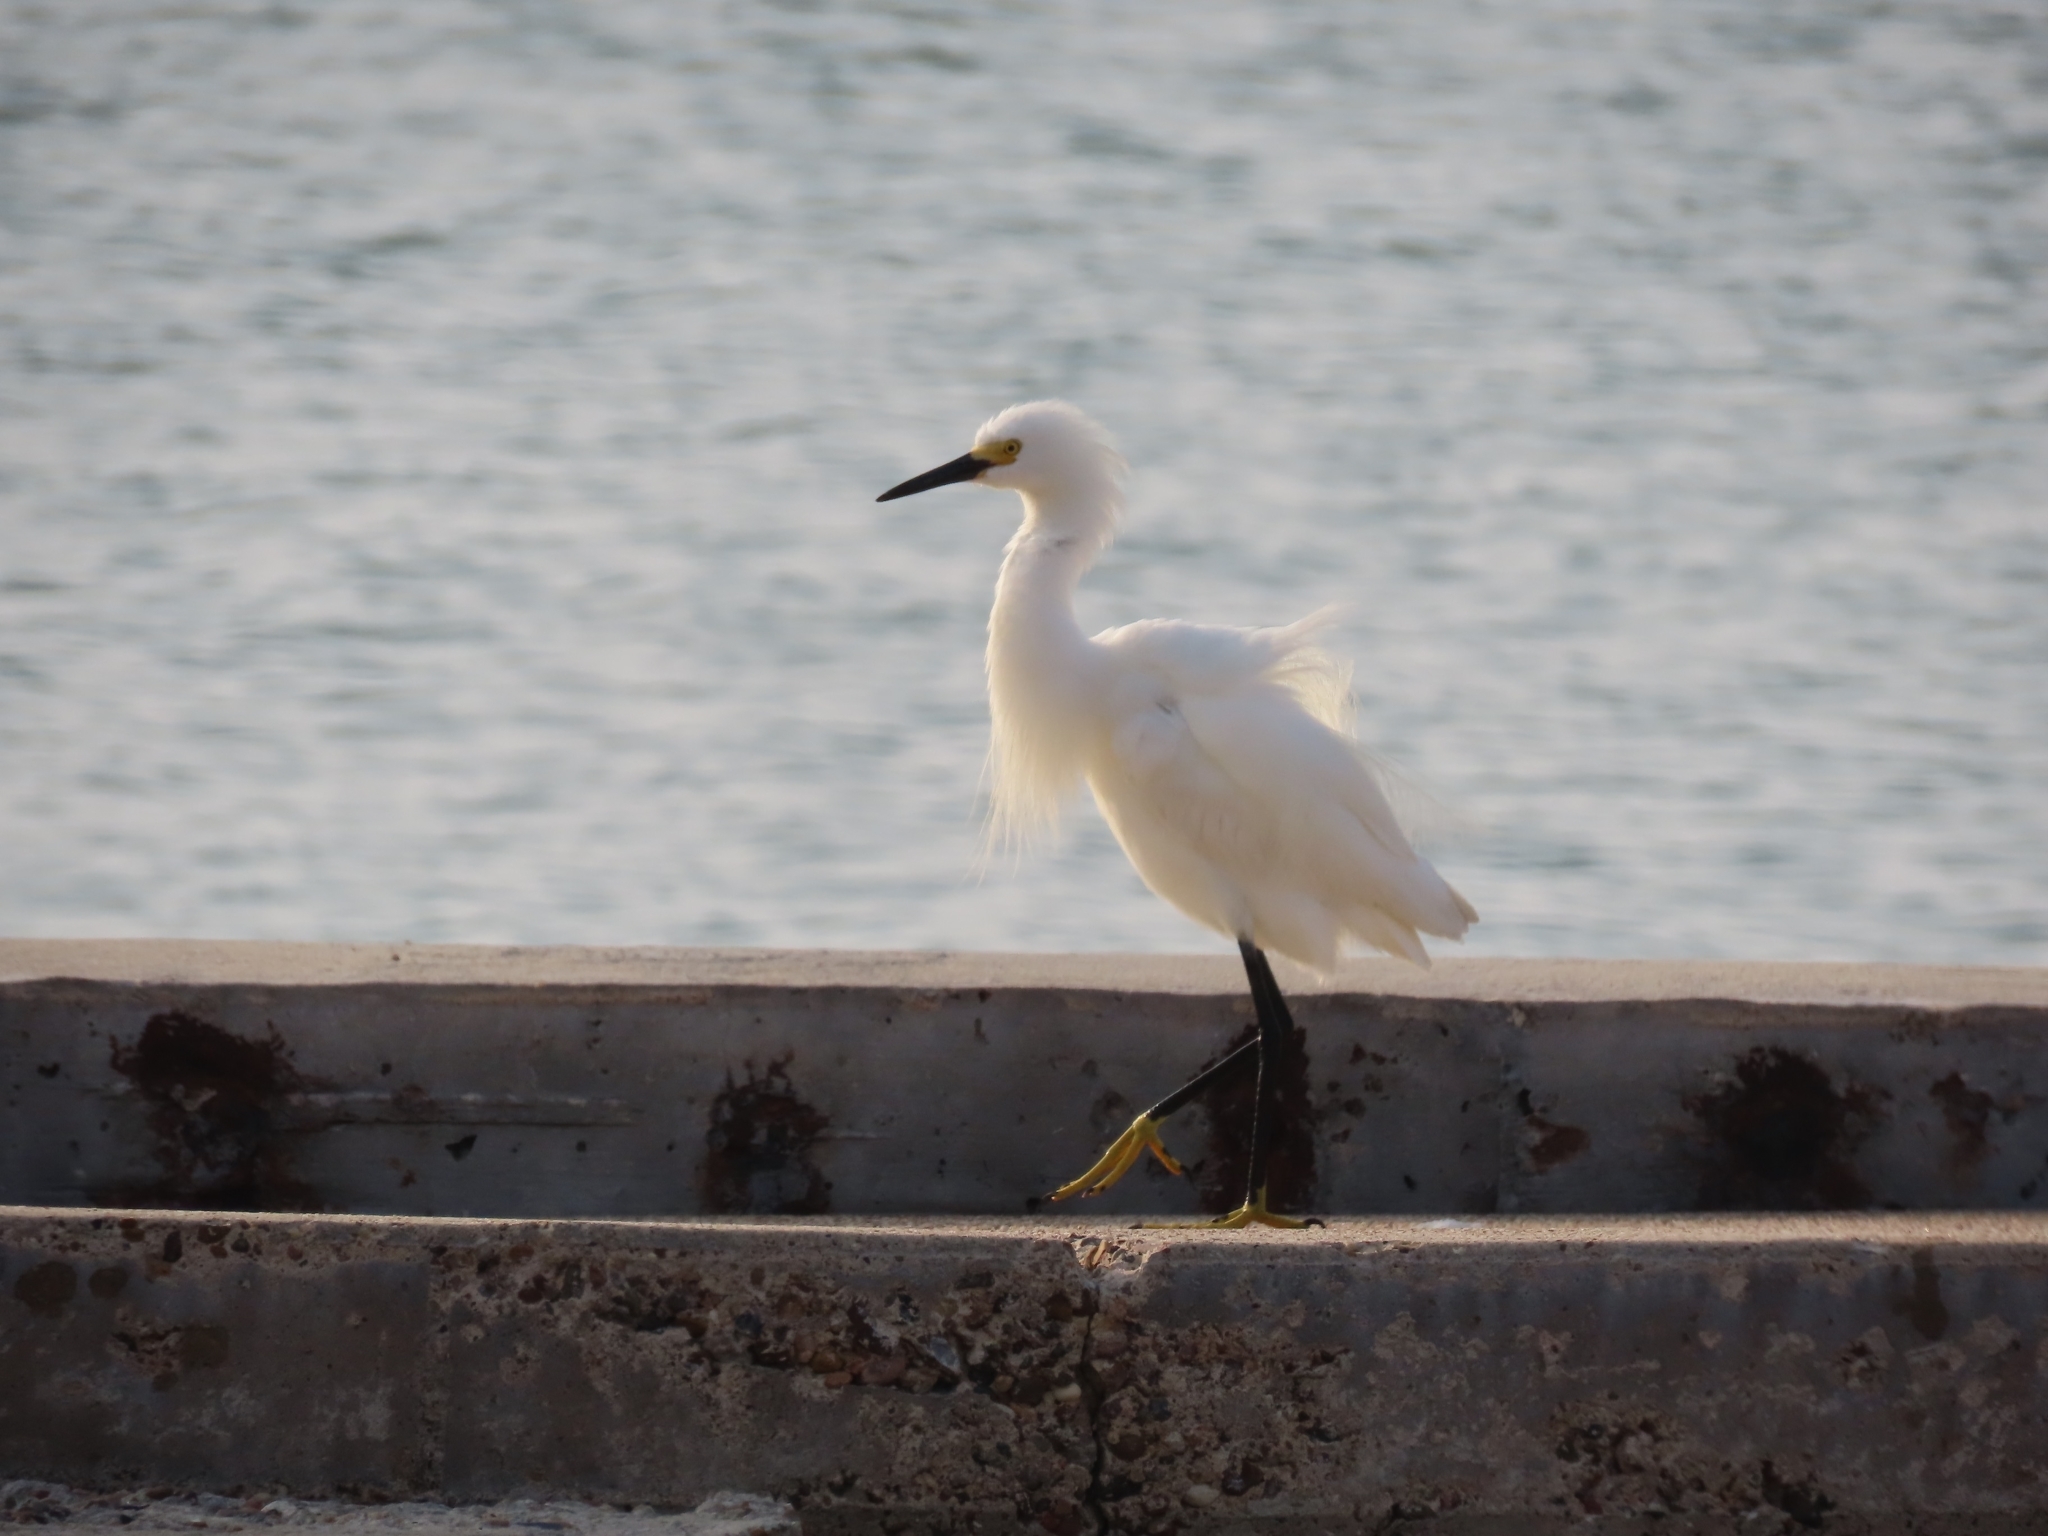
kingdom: Animalia
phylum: Chordata
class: Aves
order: Pelecaniformes
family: Ardeidae
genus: Egretta
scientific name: Egretta thula
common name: Snowy egret
